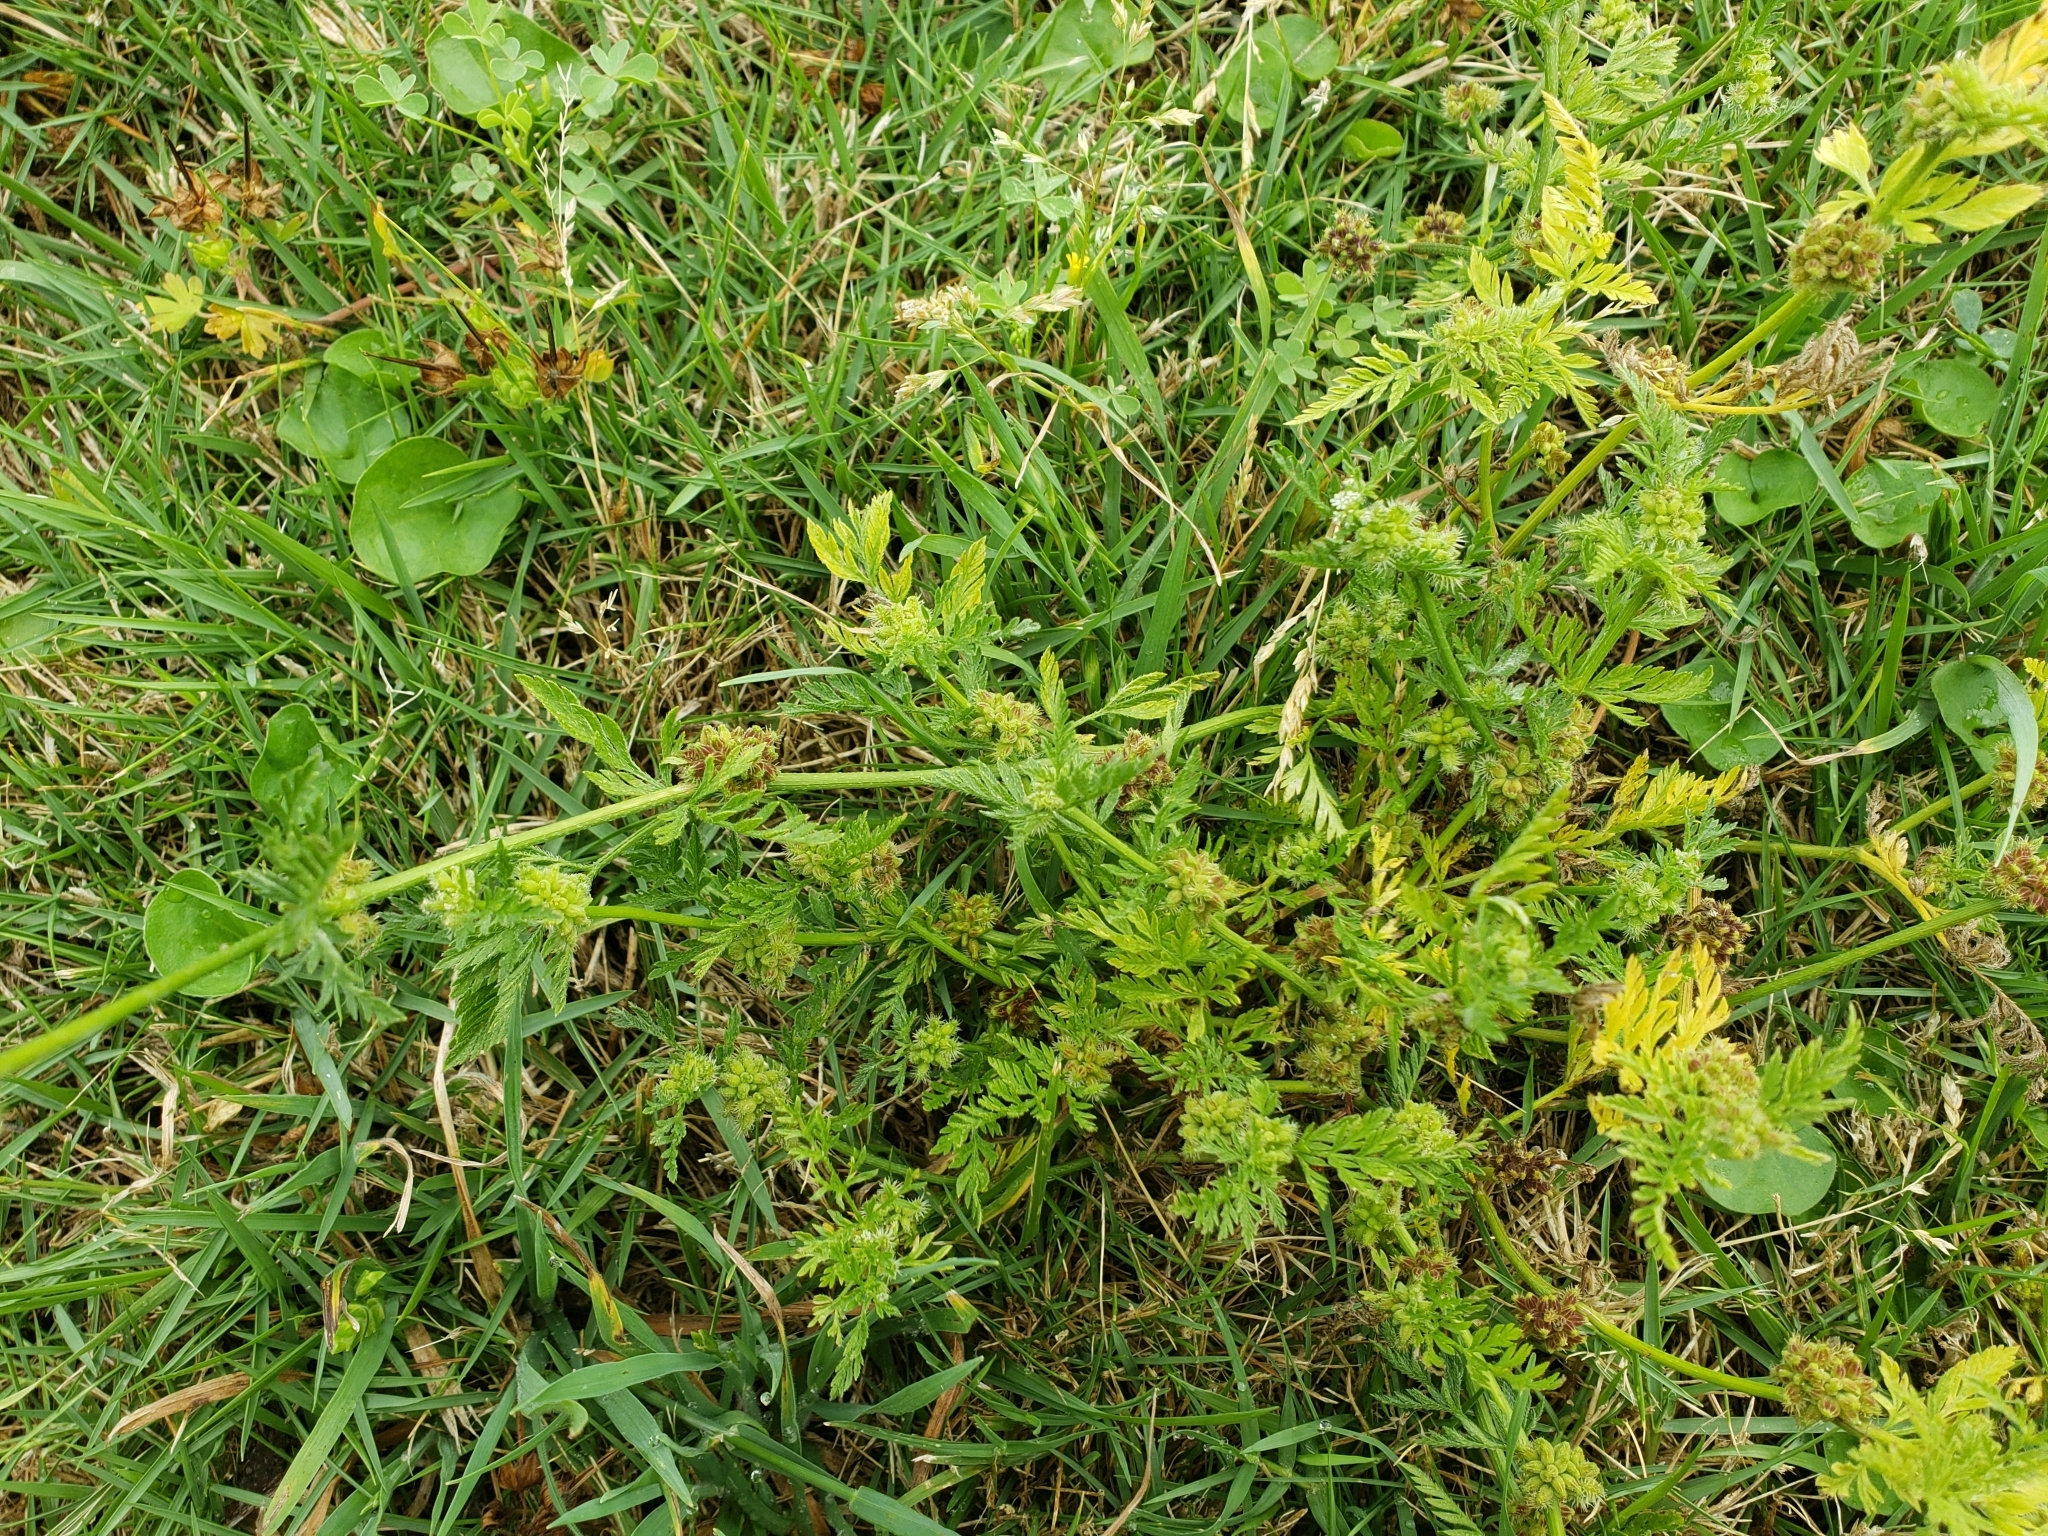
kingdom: Plantae
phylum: Tracheophyta
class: Magnoliopsida
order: Apiales
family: Apiaceae
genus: Torilis
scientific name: Torilis nodosa
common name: Knotted hedge-parsley
